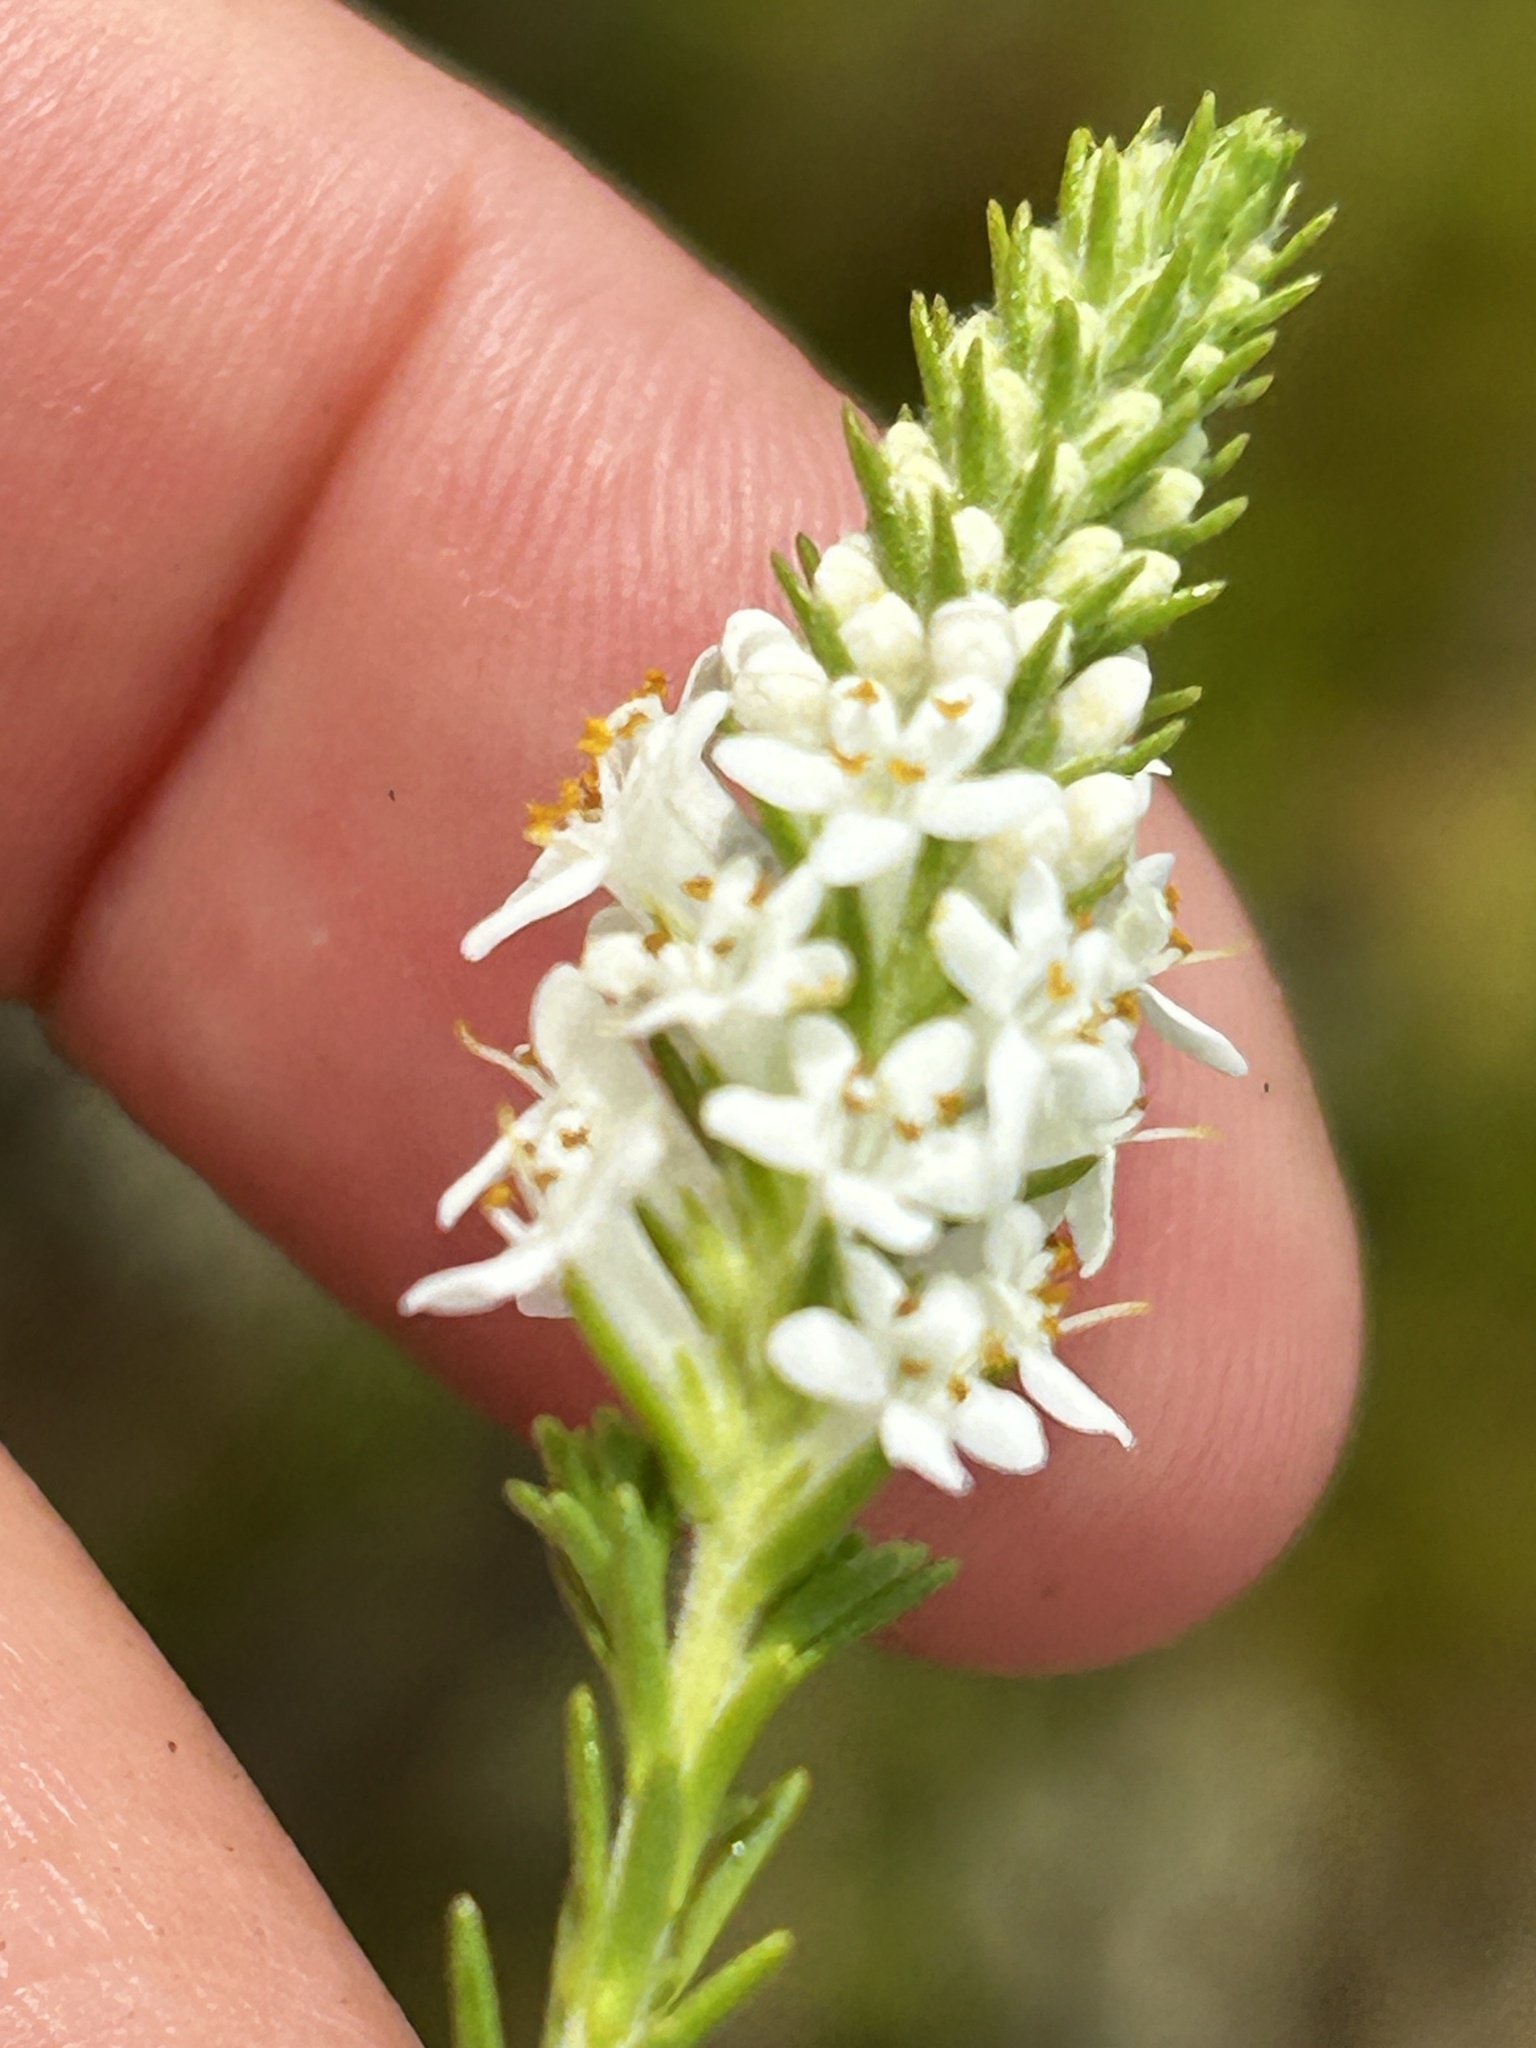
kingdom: Plantae
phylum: Tracheophyta
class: Magnoliopsida
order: Lamiales
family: Scrophulariaceae
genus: Selago
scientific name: Selago ramosissima
